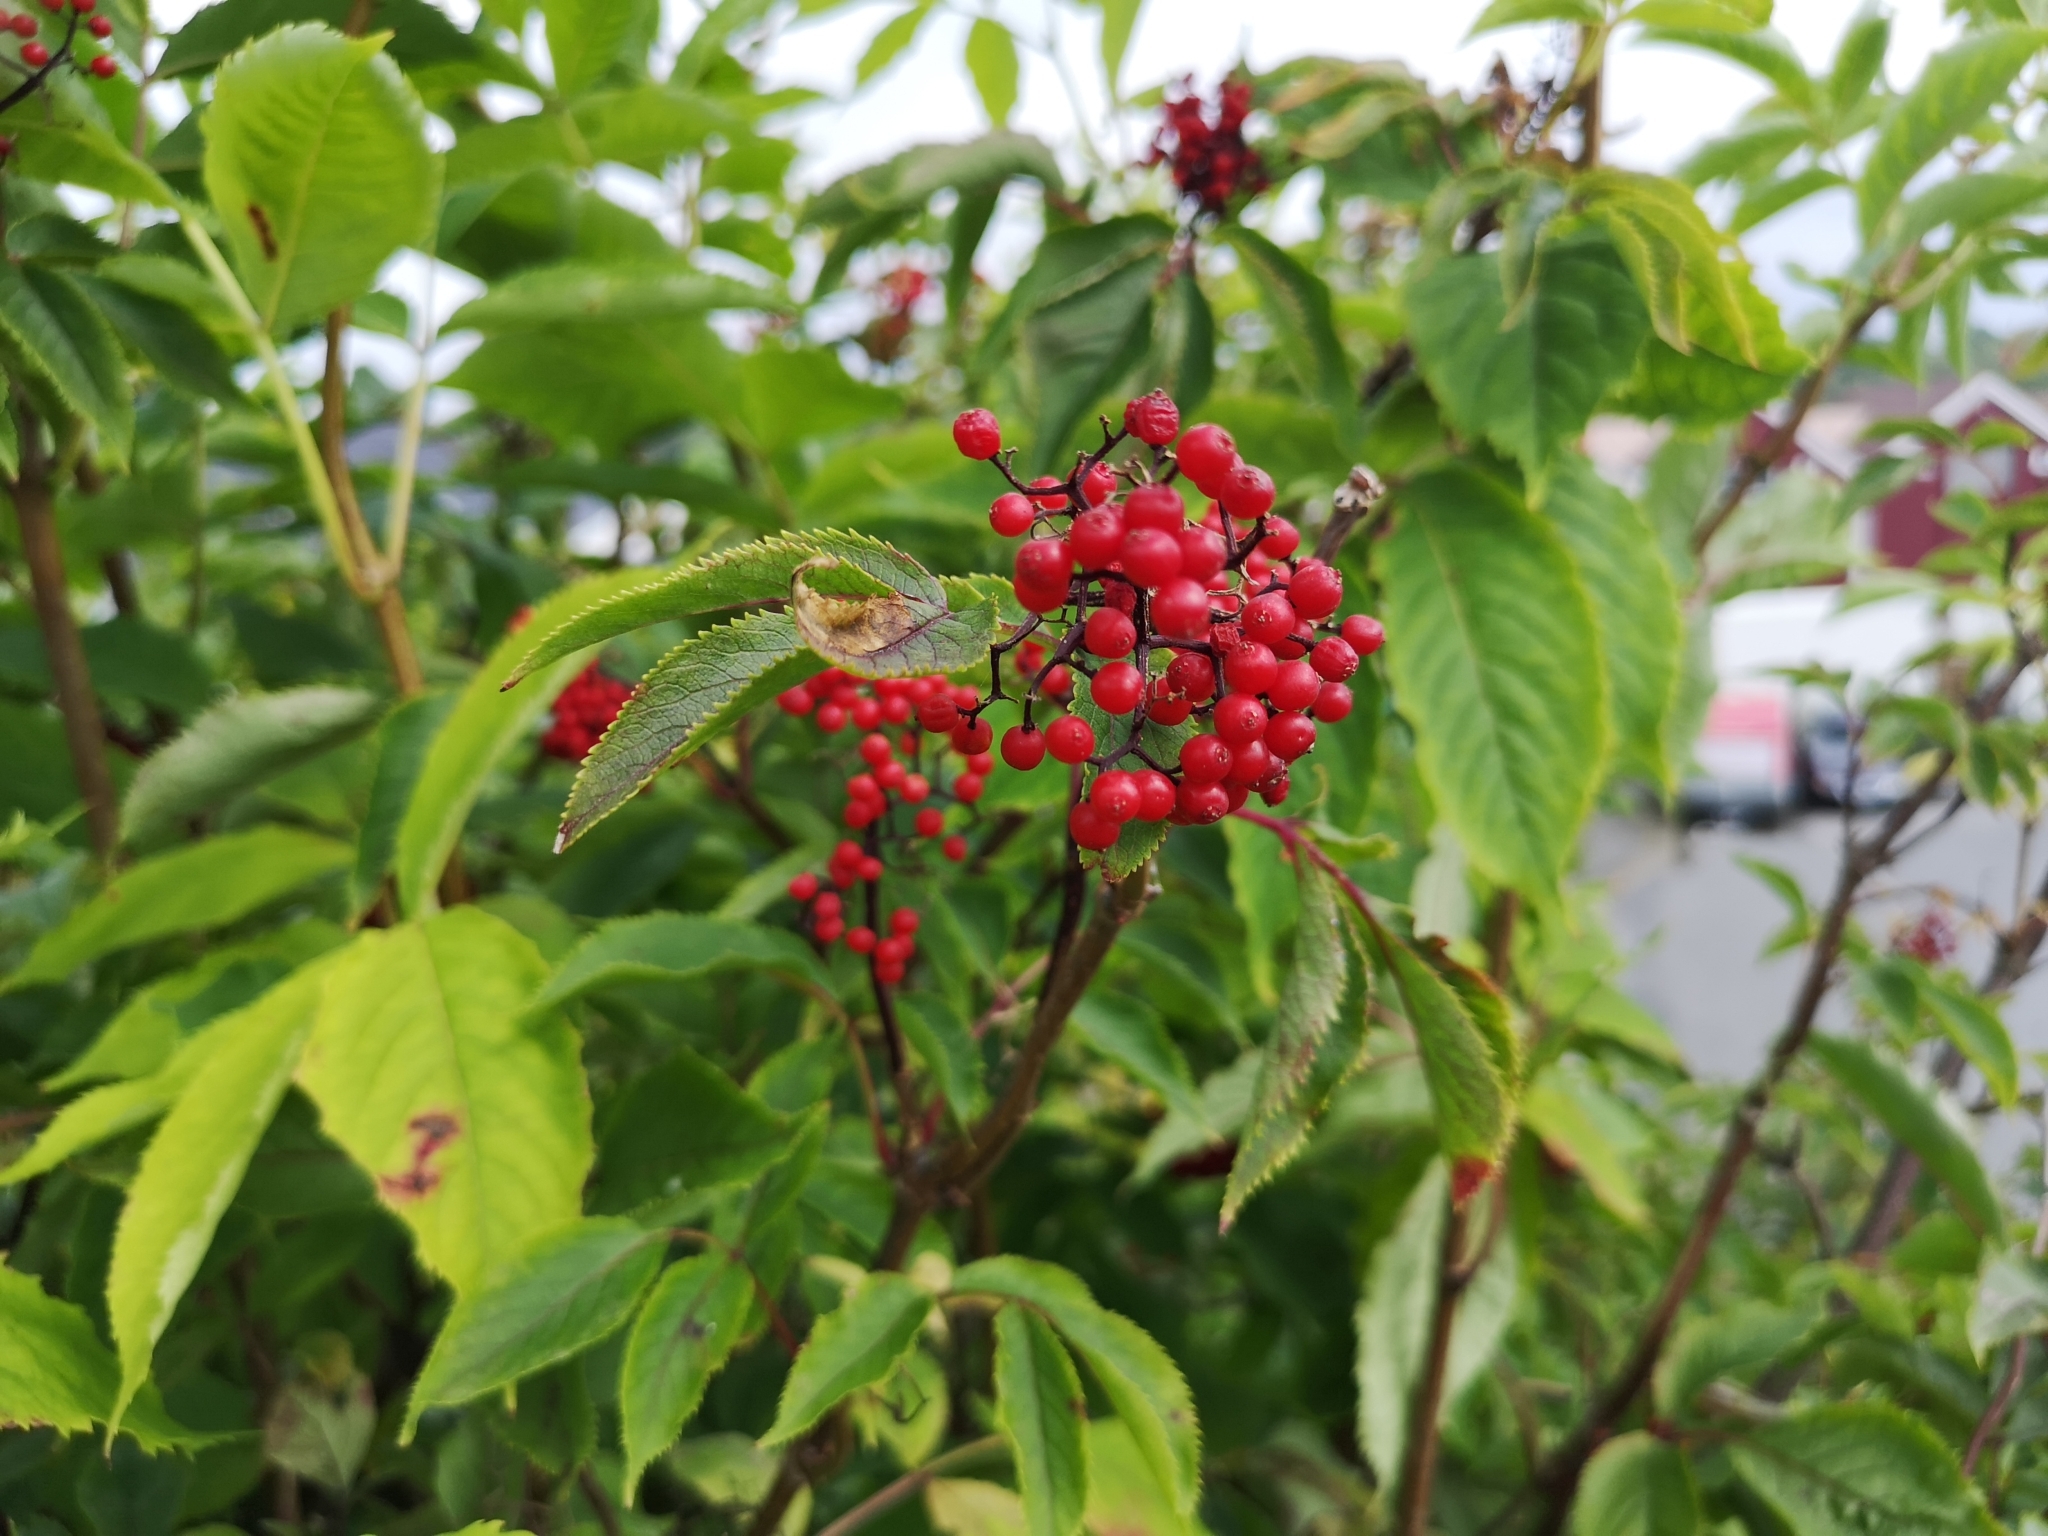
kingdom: Plantae
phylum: Tracheophyta
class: Magnoliopsida
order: Dipsacales
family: Viburnaceae
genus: Sambucus
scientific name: Sambucus racemosa
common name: Red-berried elder
